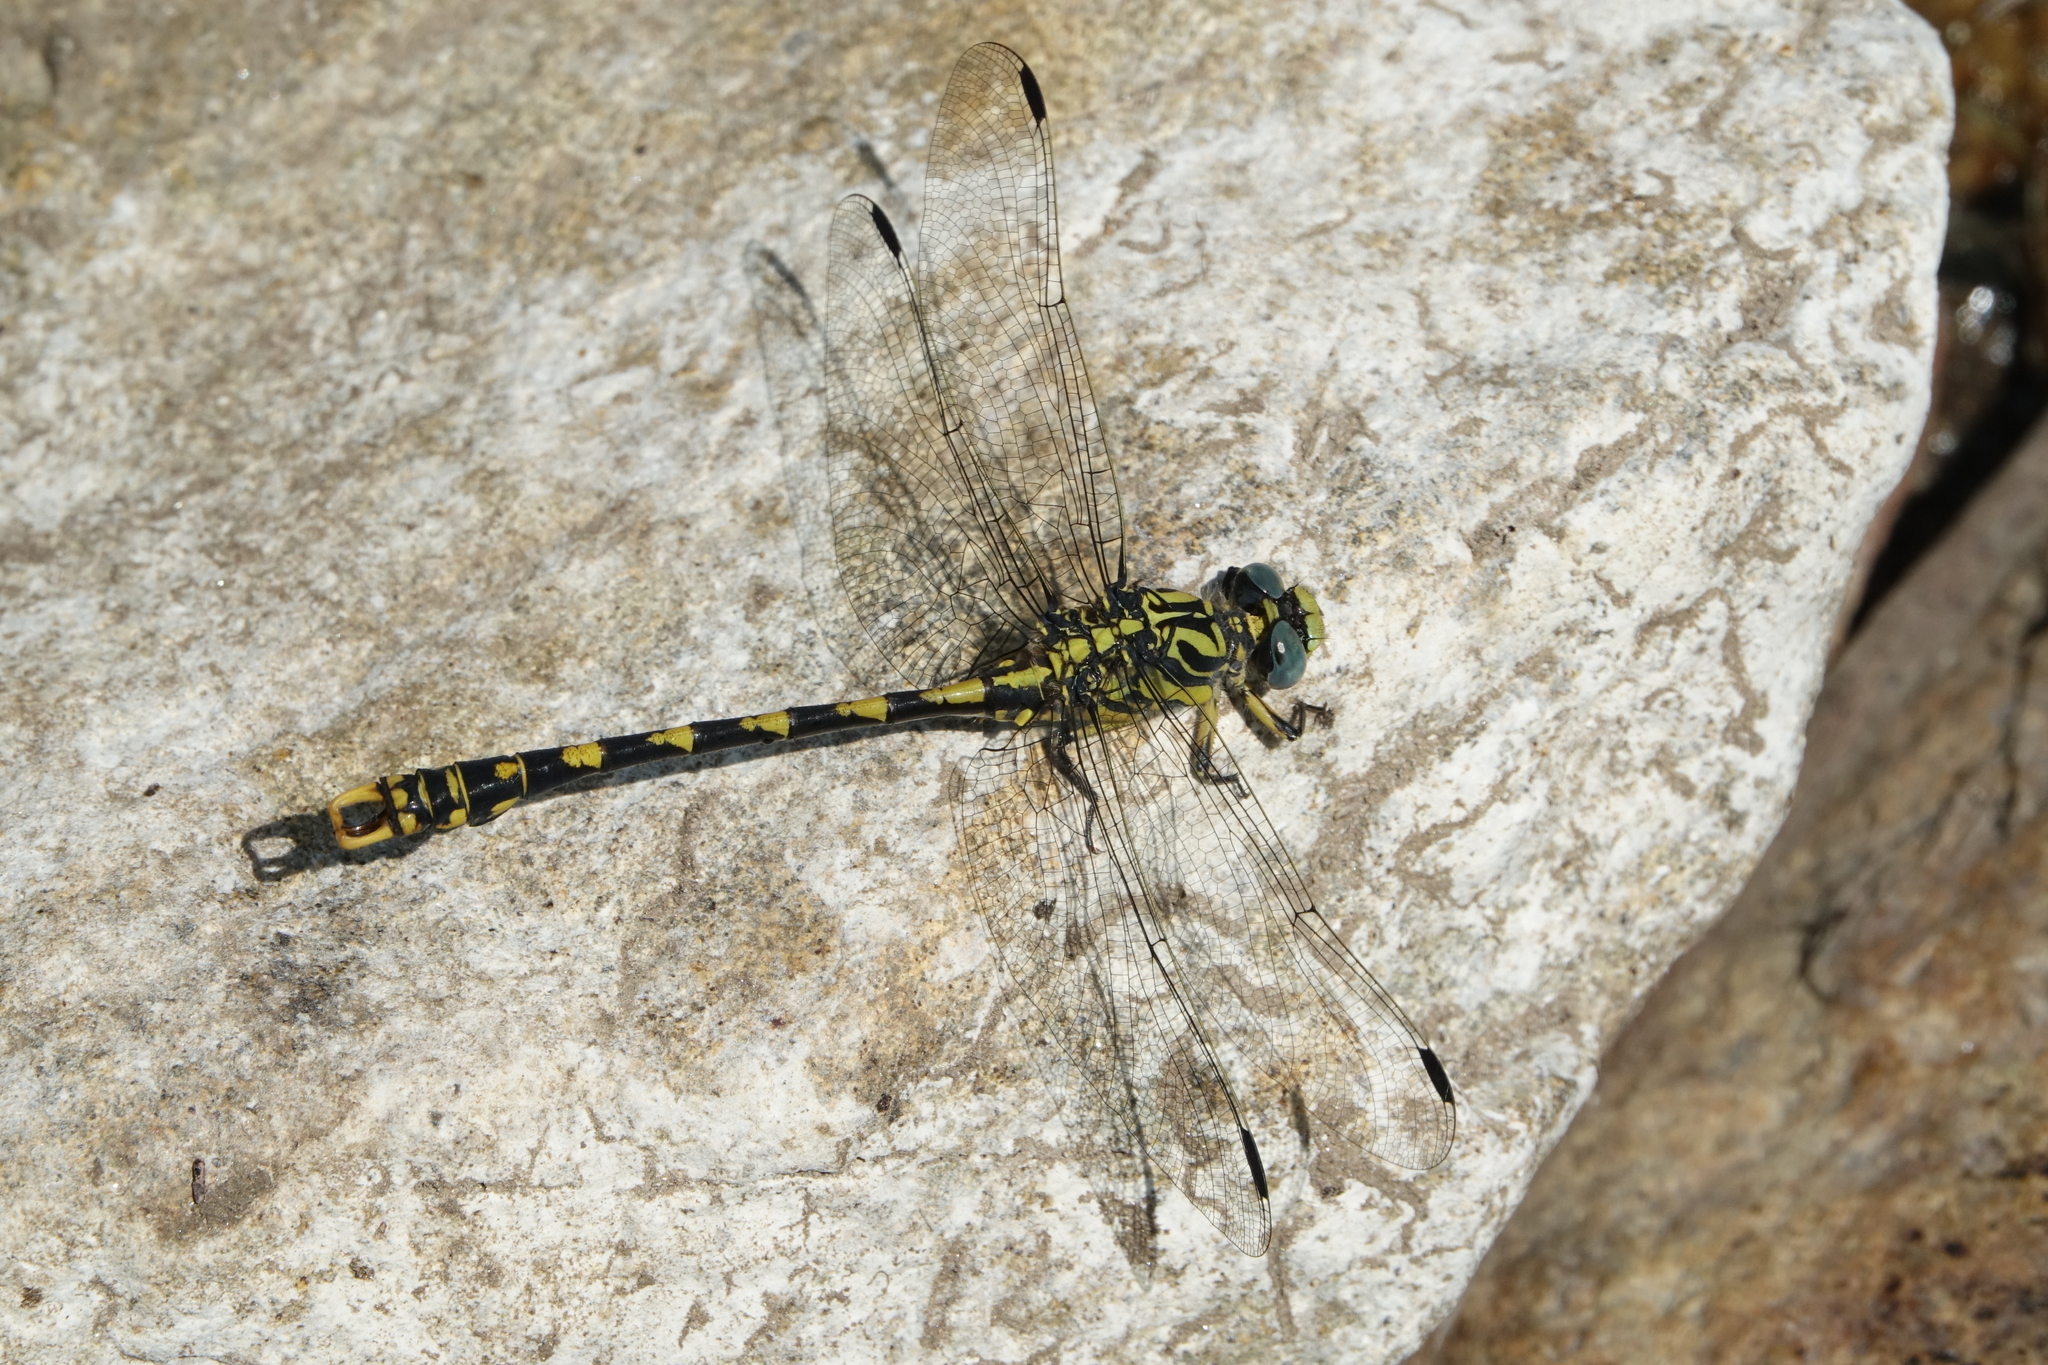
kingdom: Animalia
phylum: Arthropoda
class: Insecta
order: Odonata
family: Gomphidae
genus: Onychogomphus
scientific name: Onychogomphus uncatus
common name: Large pincertail
